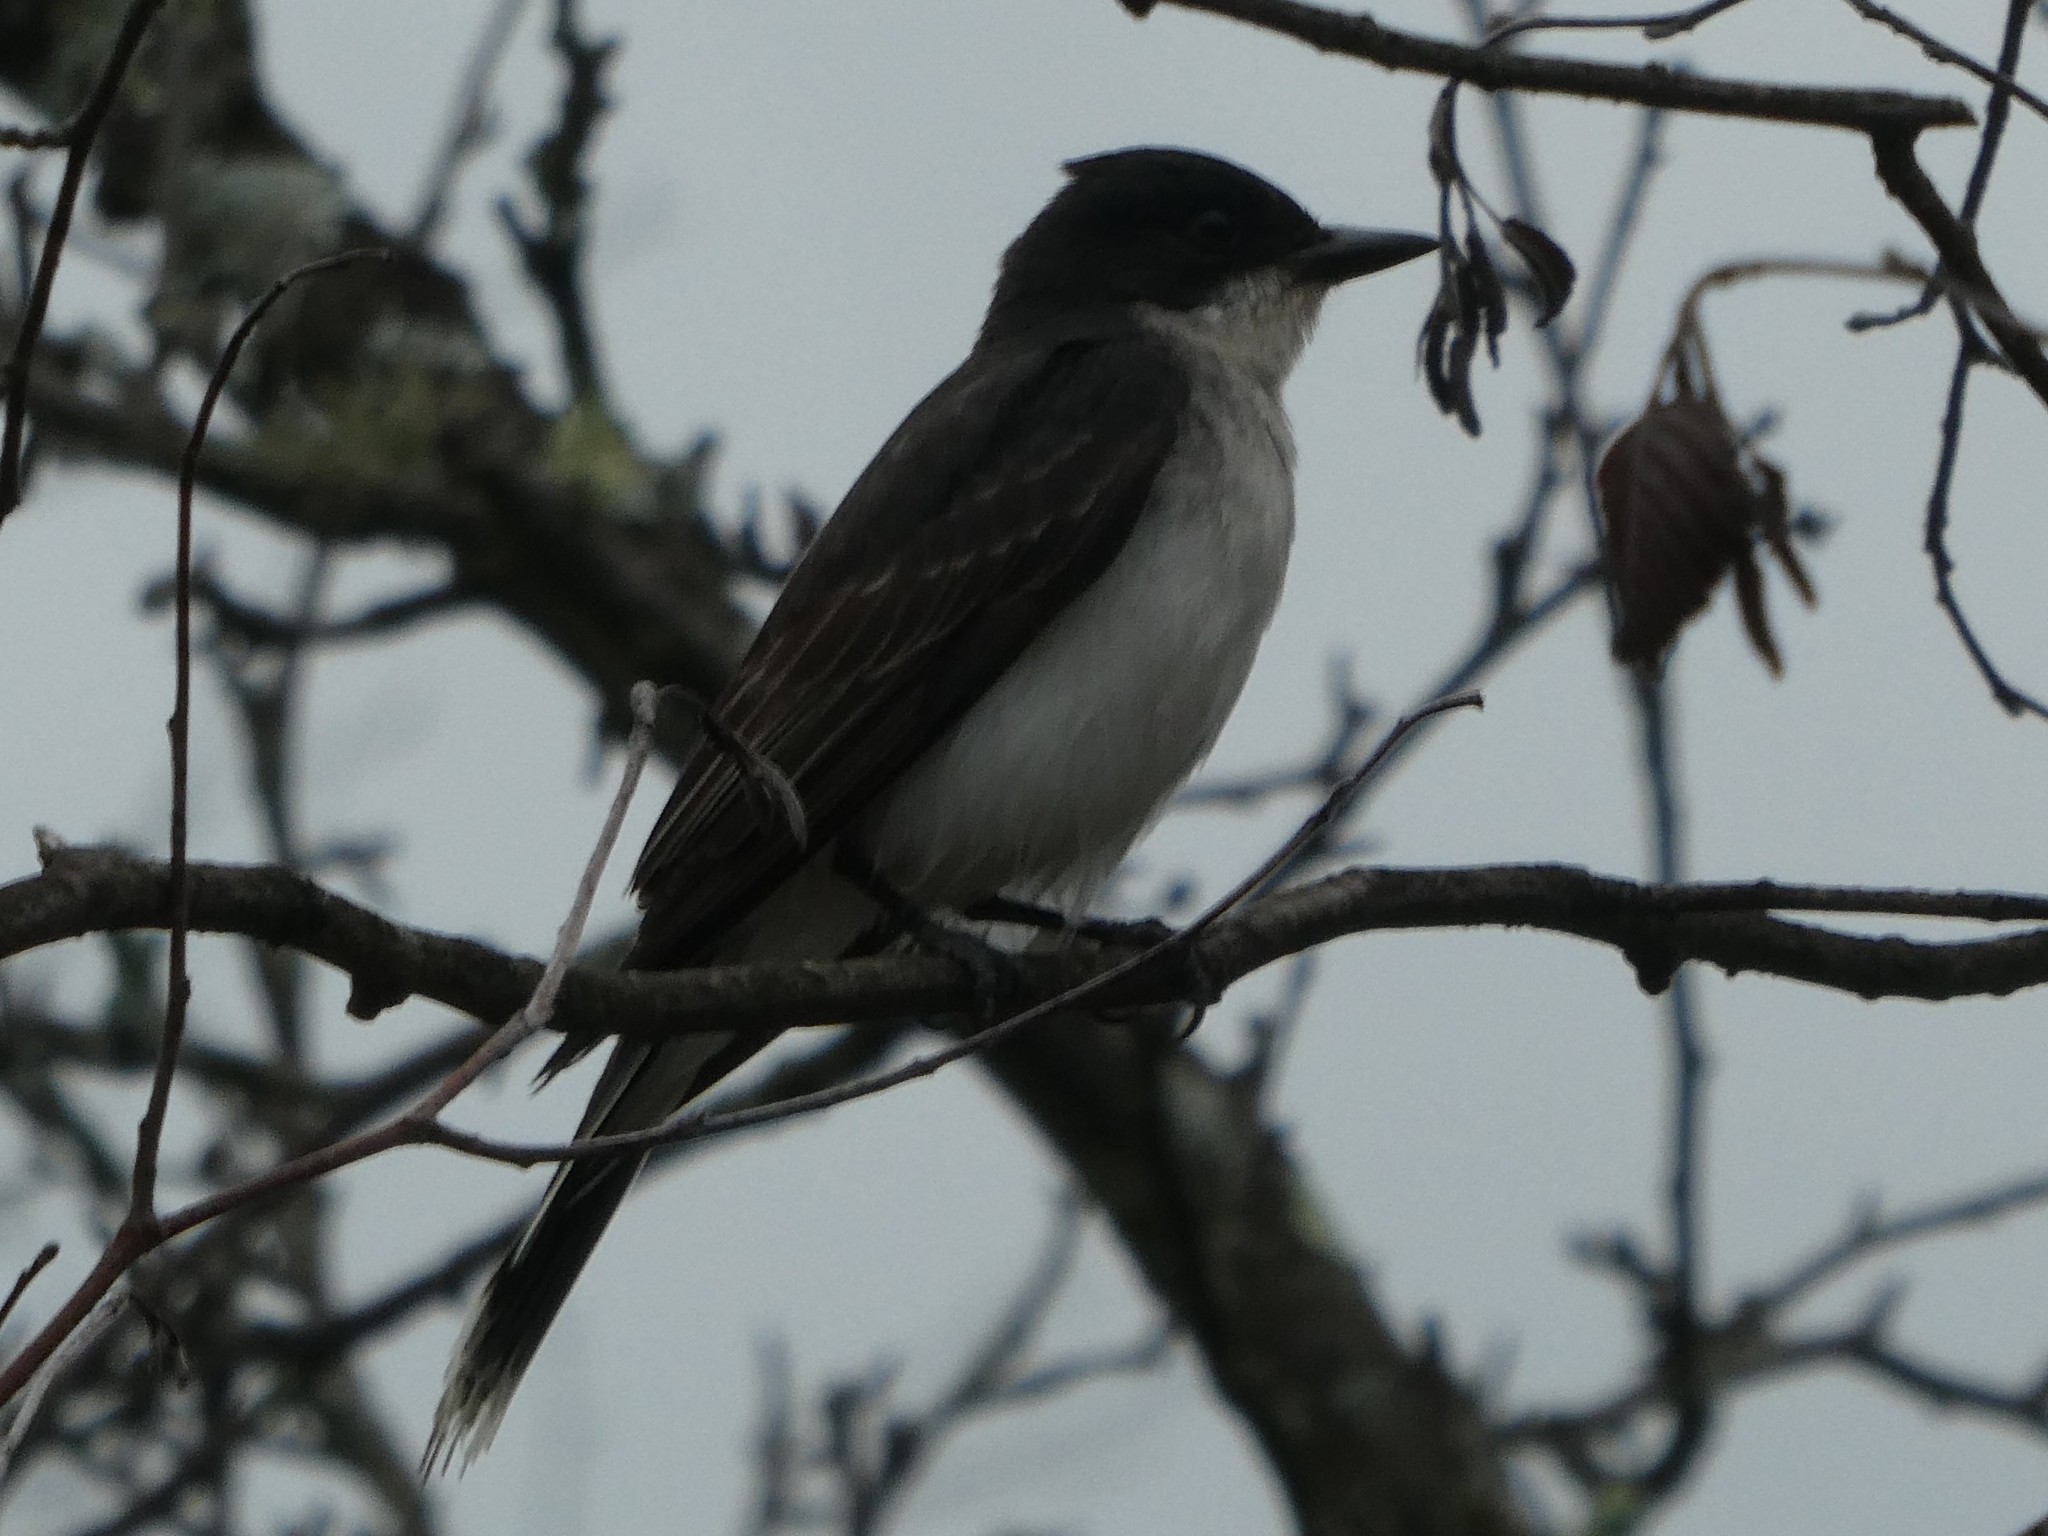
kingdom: Animalia
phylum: Chordata
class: Aves
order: Passeriformes
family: Tyrannidae
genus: Tyrannus
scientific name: Tyrannus tyrannus
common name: Eastern kingbird
